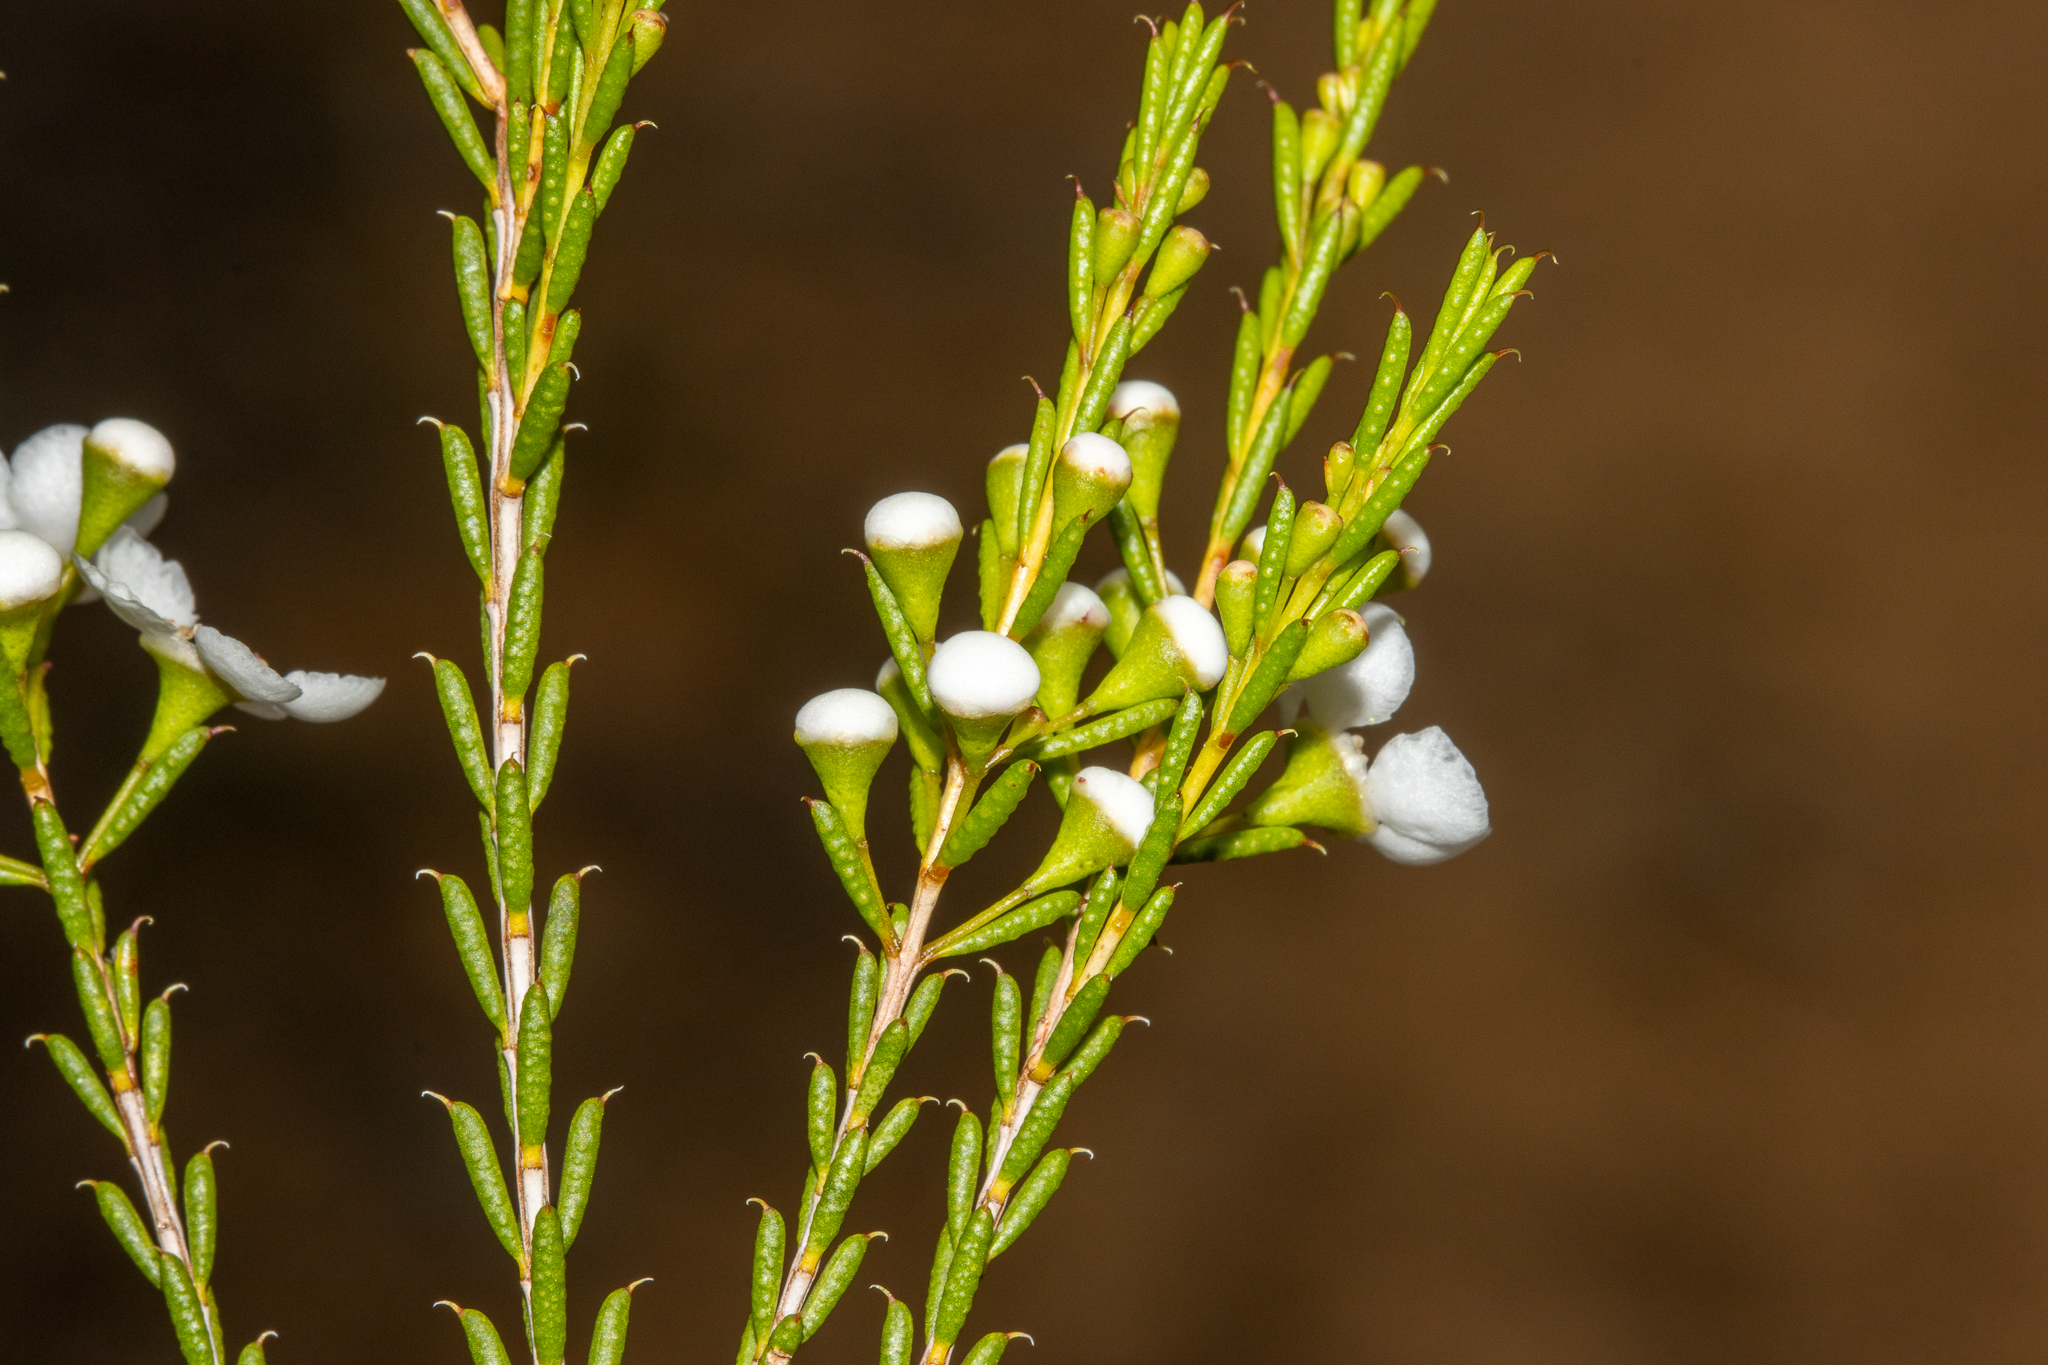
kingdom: Plantae
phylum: Tracheophyta
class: Magnoliopsida
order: Myrtales
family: Myrtaceae
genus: Hysterobaeckea
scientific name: Hysterobaeckea behrii
